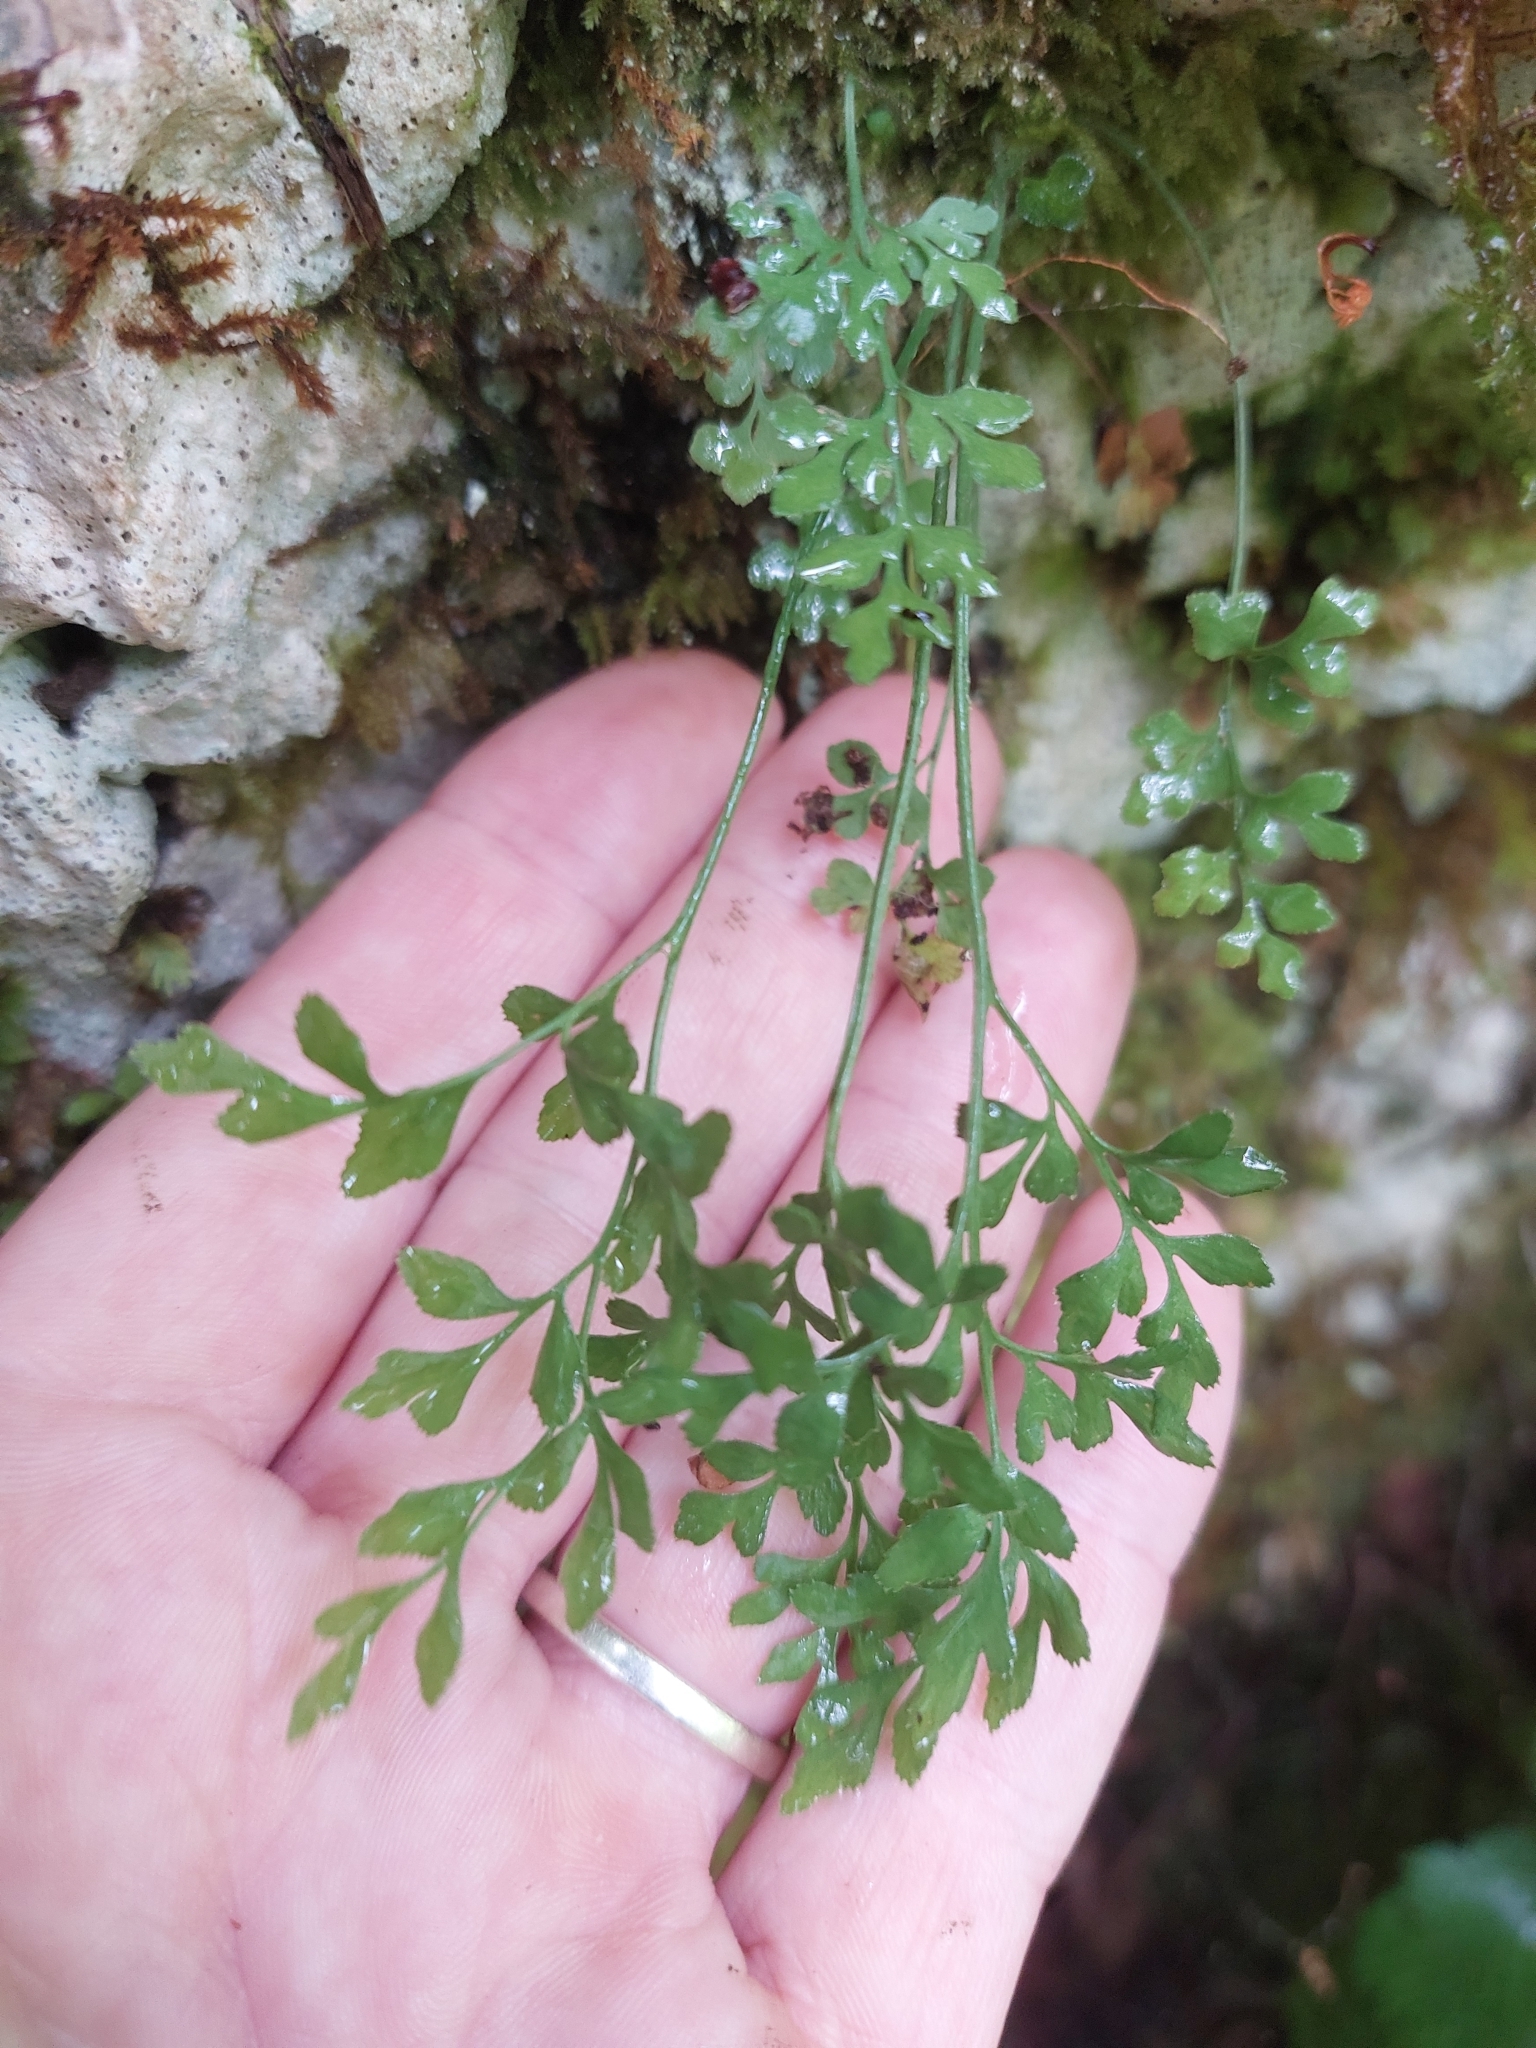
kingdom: Plantae
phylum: Tracheophyta
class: Polypodiopsida
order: Polypodiales
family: Aspleniaceae
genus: Asplenium
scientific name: Asplenium ruta-muraria
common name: Wall-rue
